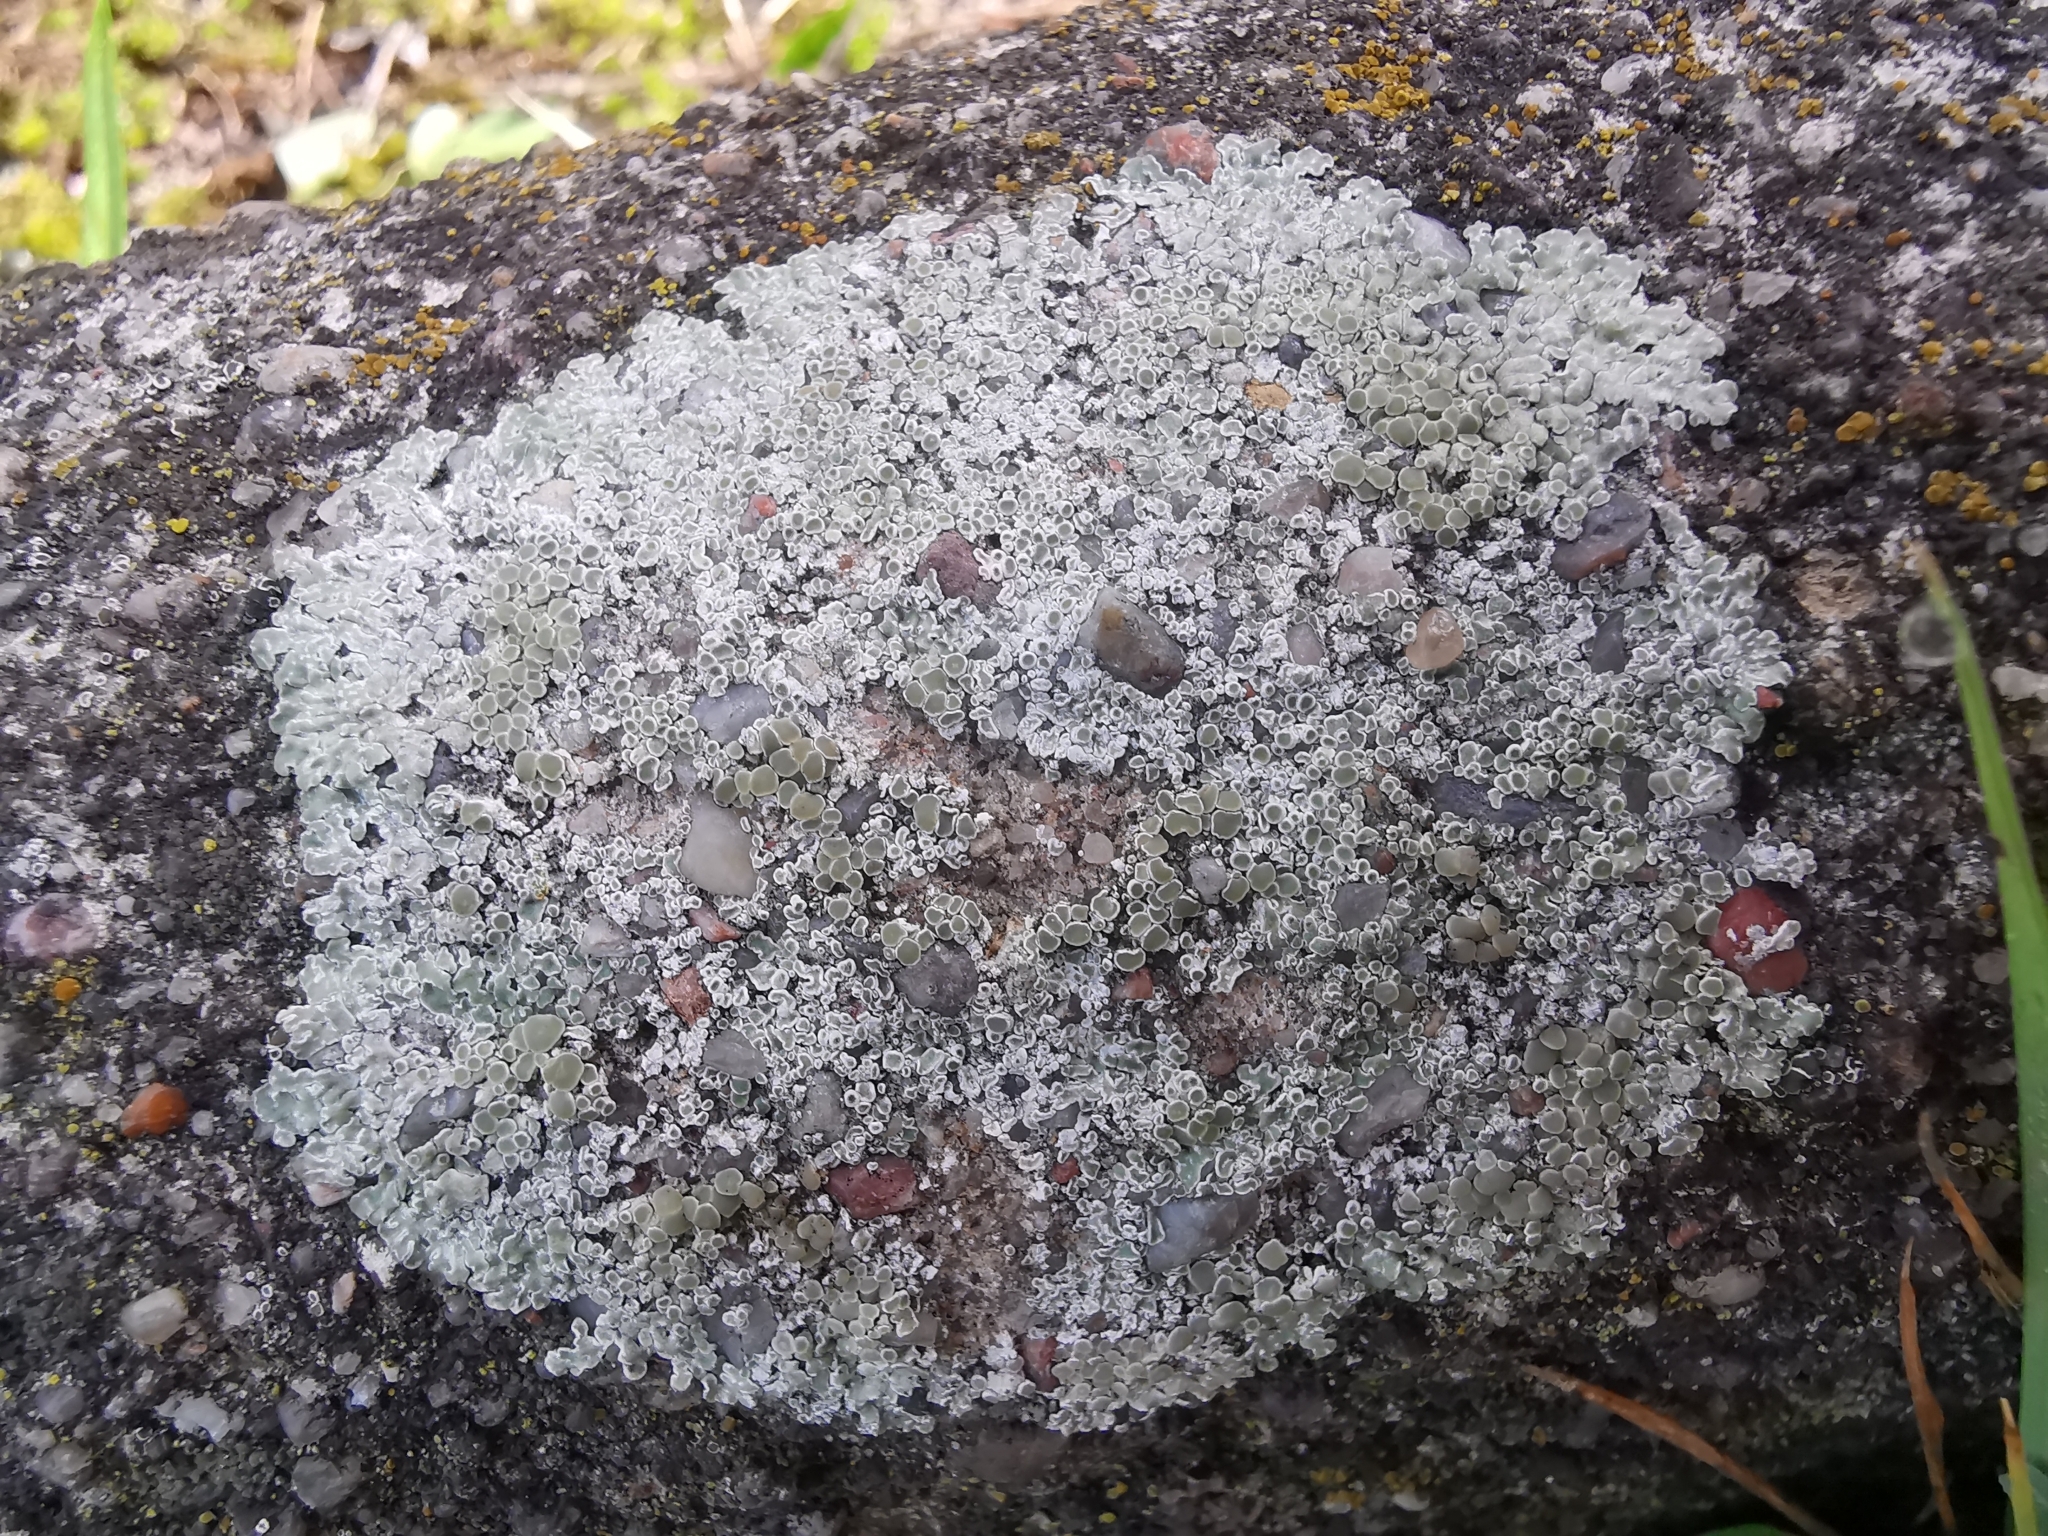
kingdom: Fungi
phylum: Ascomycota
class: Lecanoromycetes
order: Lecanorales
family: Lecanoraceae
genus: Protoparmeliopsis
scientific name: Protoparmeliopsis muralis
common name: Stonewall rim lichen
